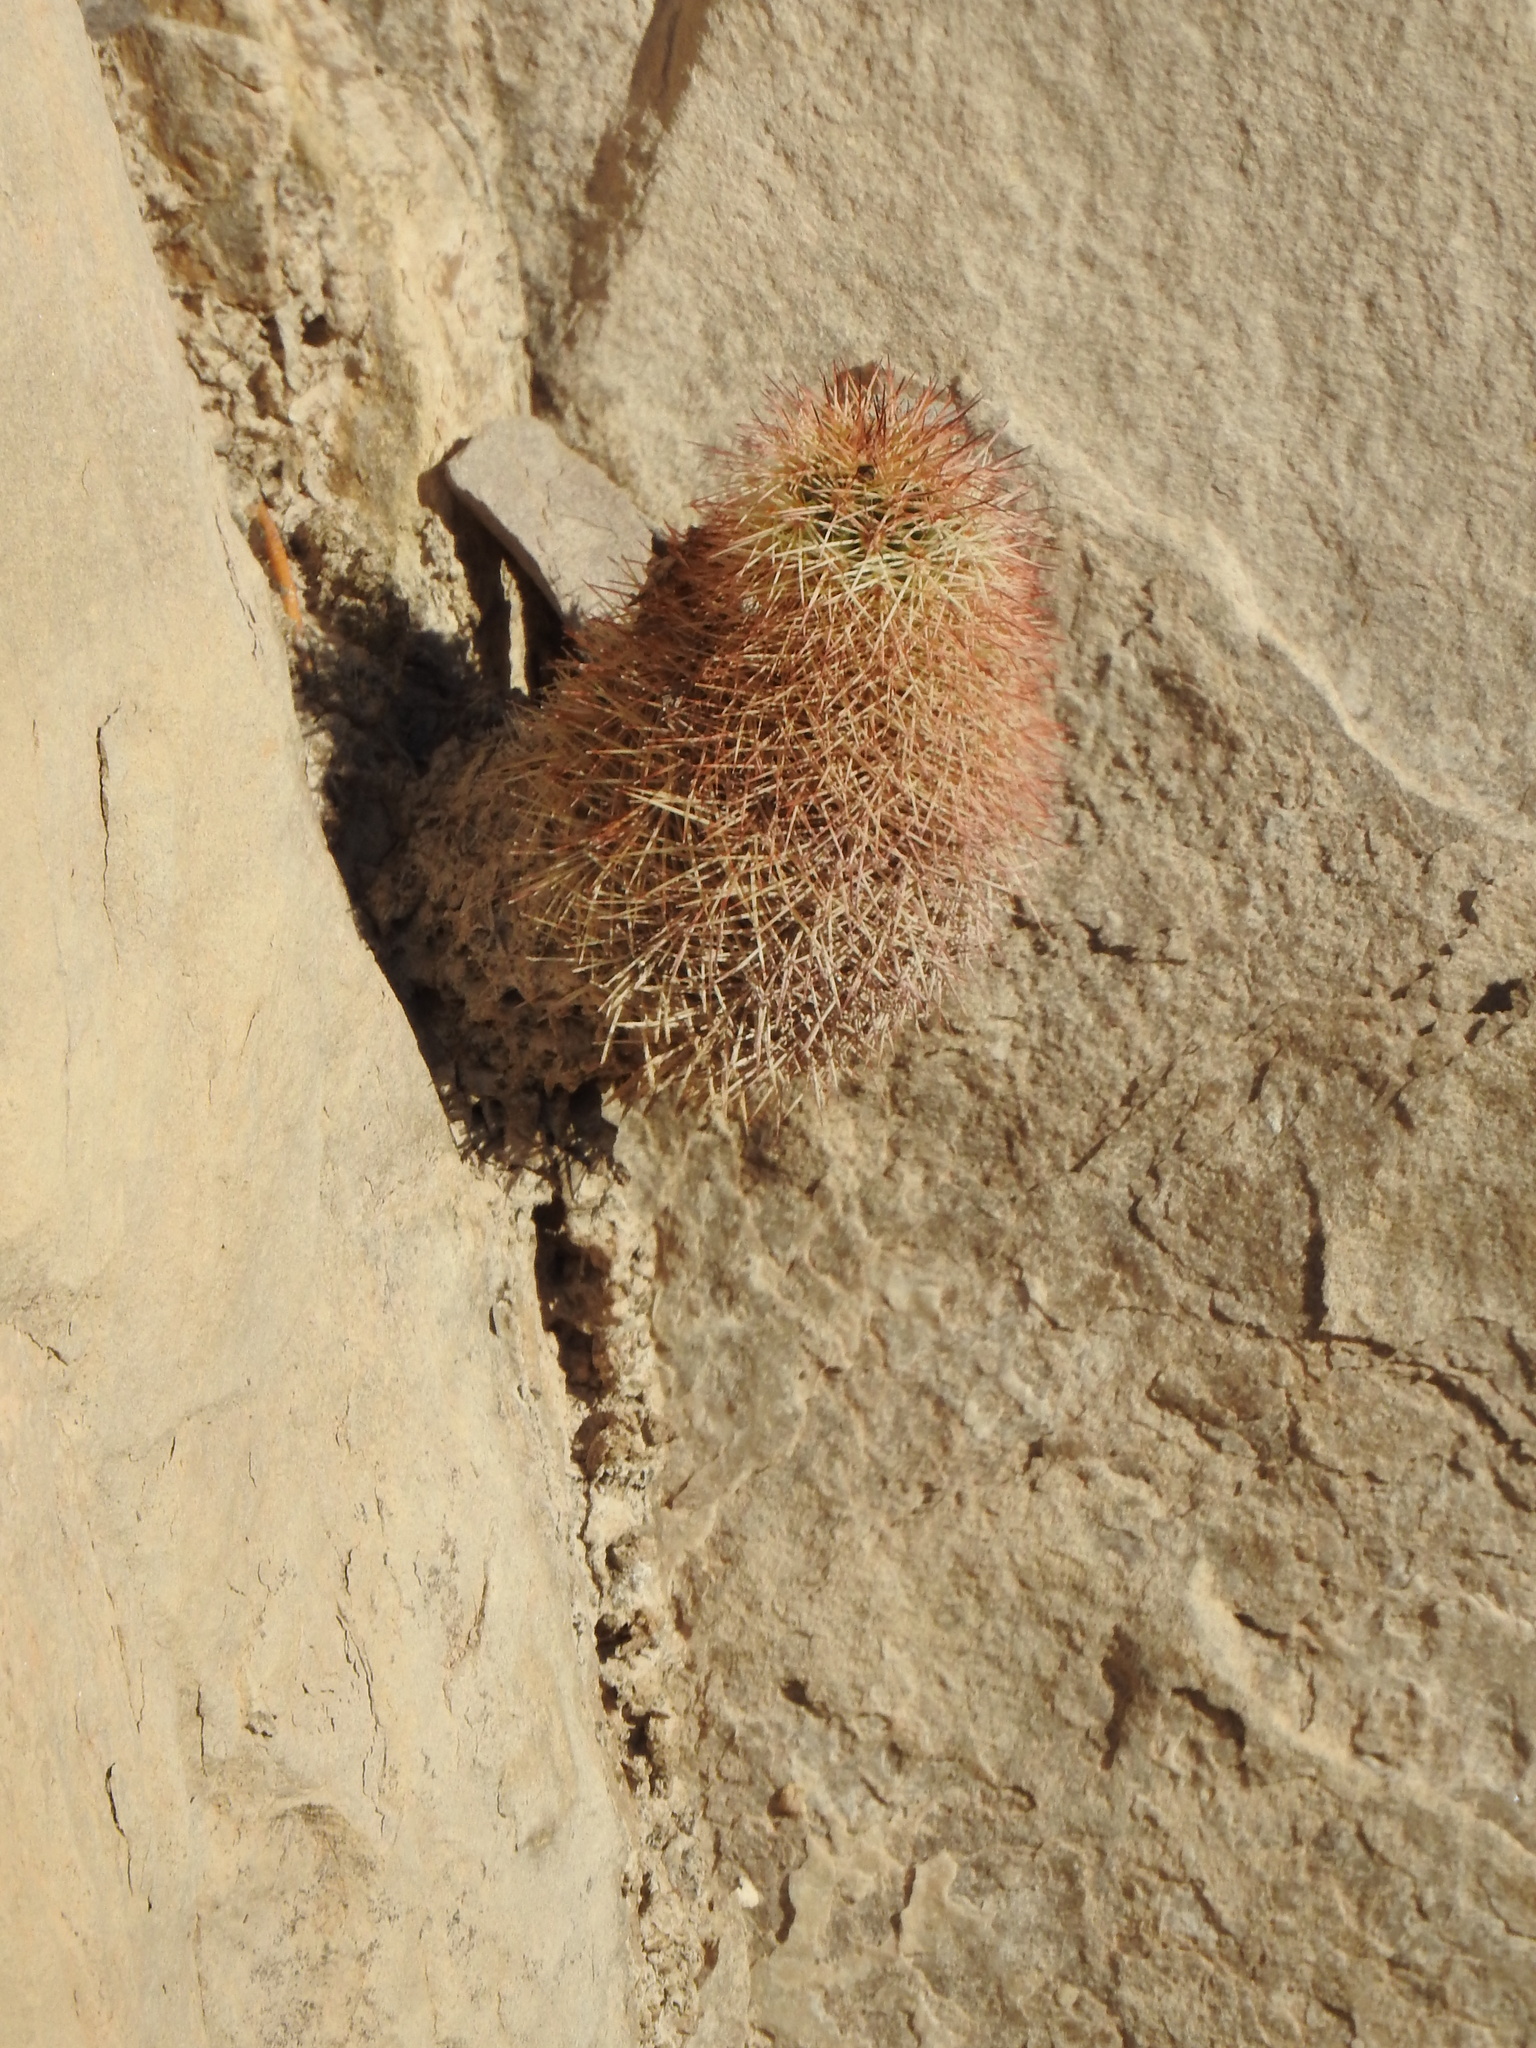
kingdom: Plantae
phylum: Tracheophyta
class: Magnoliopsida
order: Caryophyllales
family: Cactaceae
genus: Echinocereus
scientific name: Echinocereus dasyacanthus
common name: Spiny hedgehog cactus
